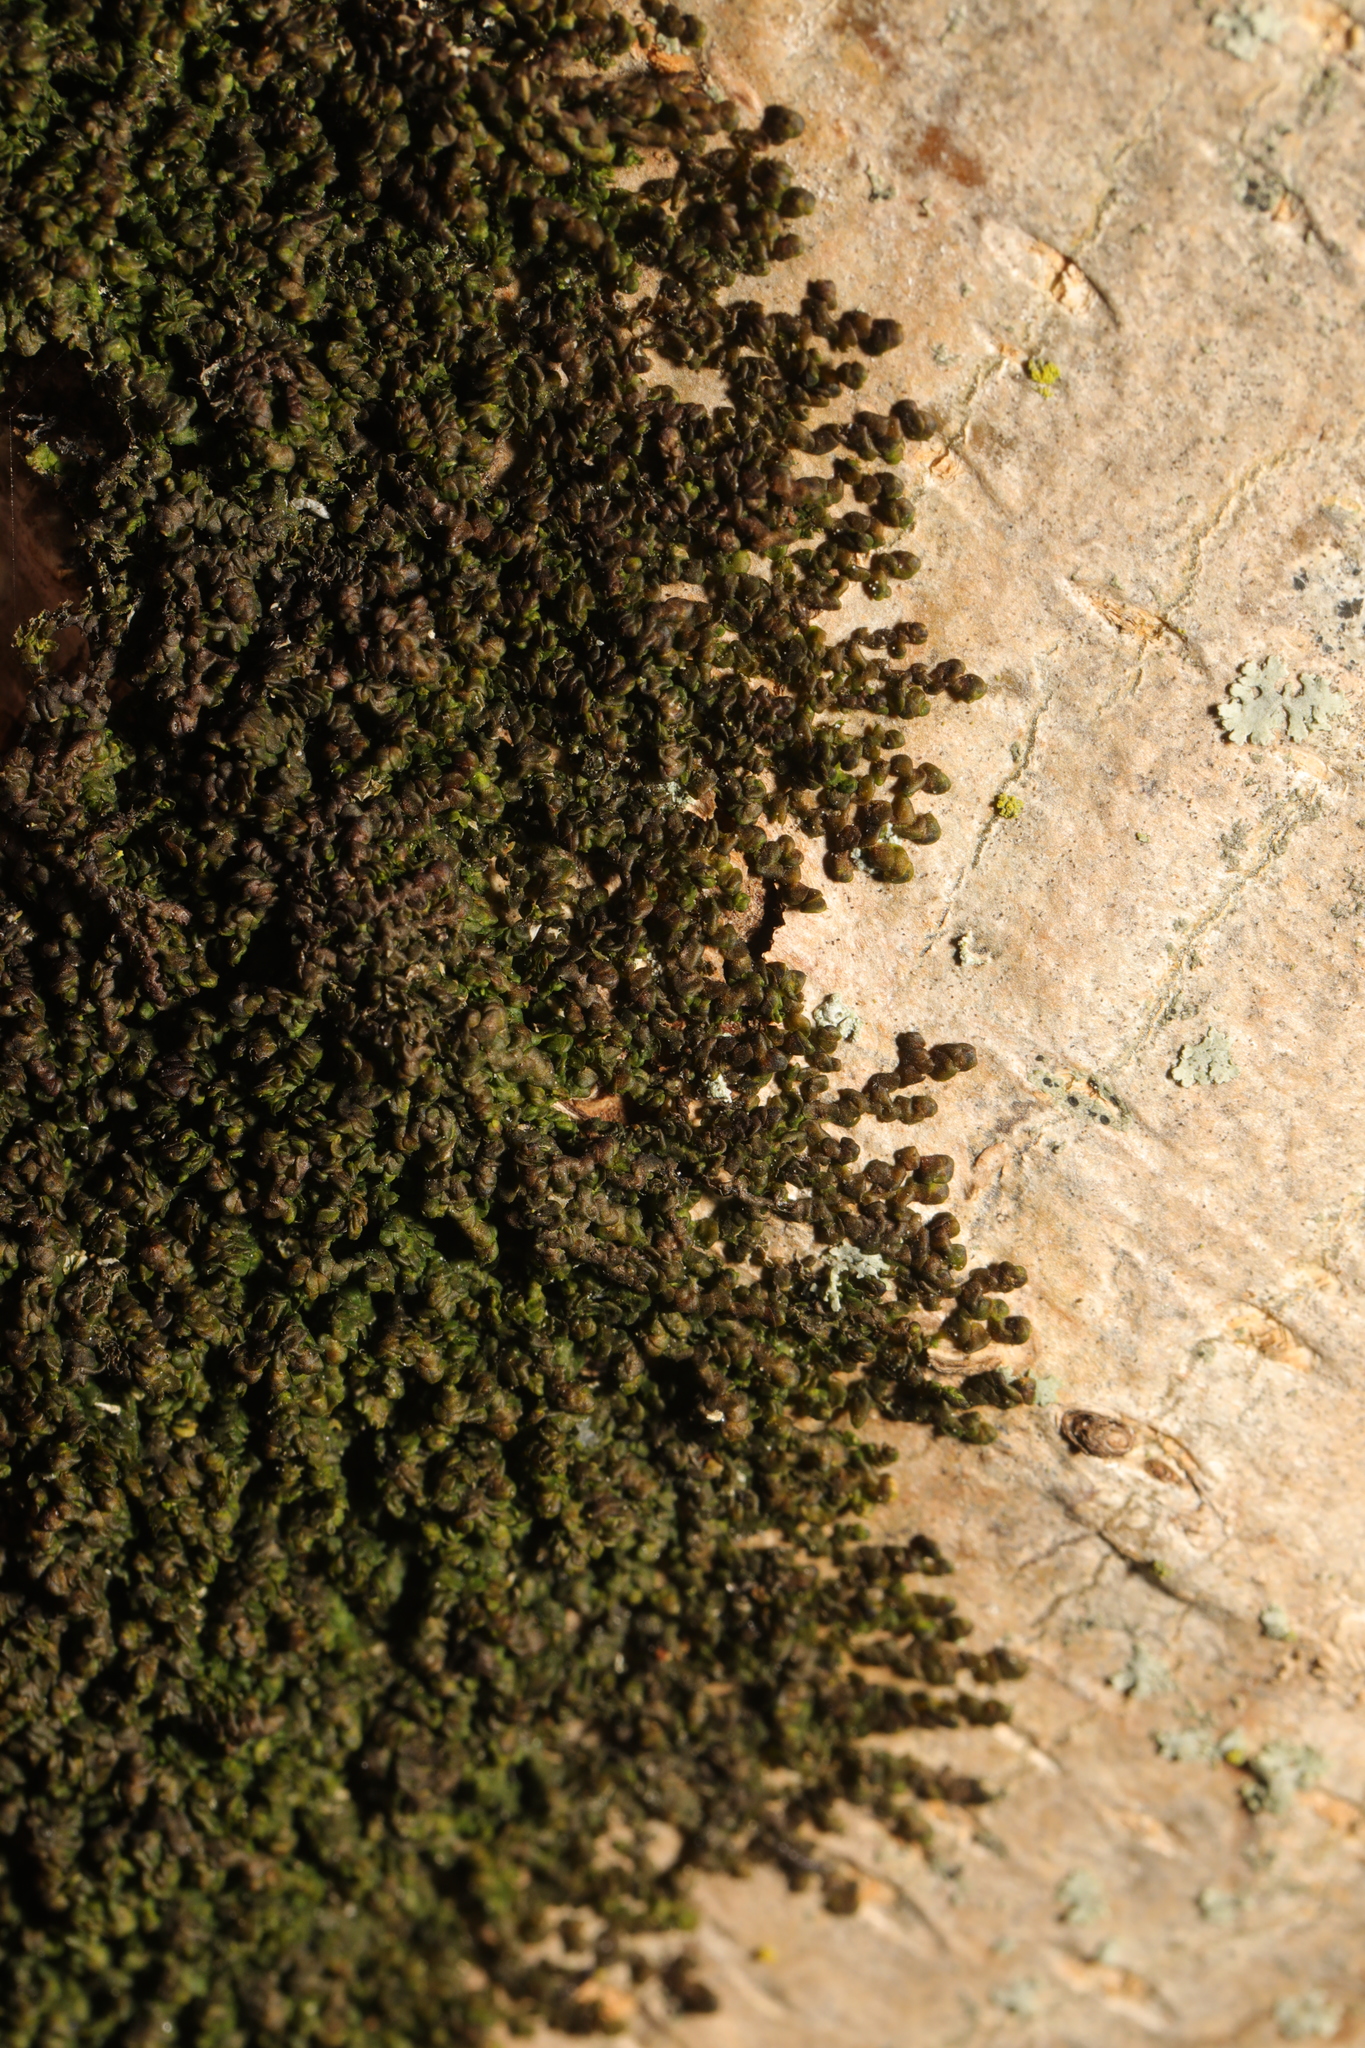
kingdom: Plantae
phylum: Marchantiophyta
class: Jungermanniopsida
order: Porellales
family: Frullaniaceae
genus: Frullania
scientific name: Frullania dilatata
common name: Dilated scalewort
